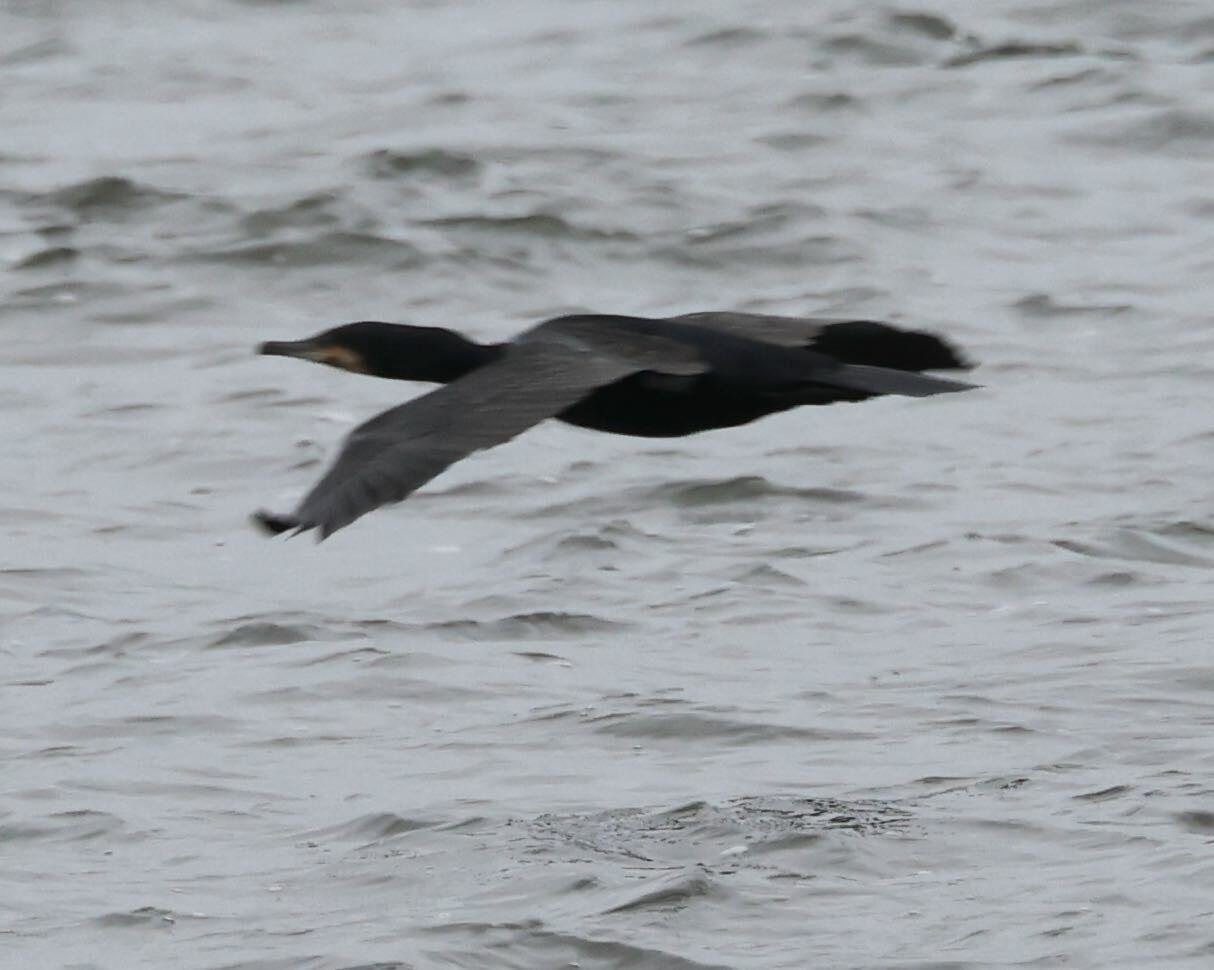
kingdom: Animalia
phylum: Chordata
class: Aves
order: Suliformes
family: Phalacrocoracidae
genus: Phalacrocorax
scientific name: Phalacrocorax carbo
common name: Great cormorant
